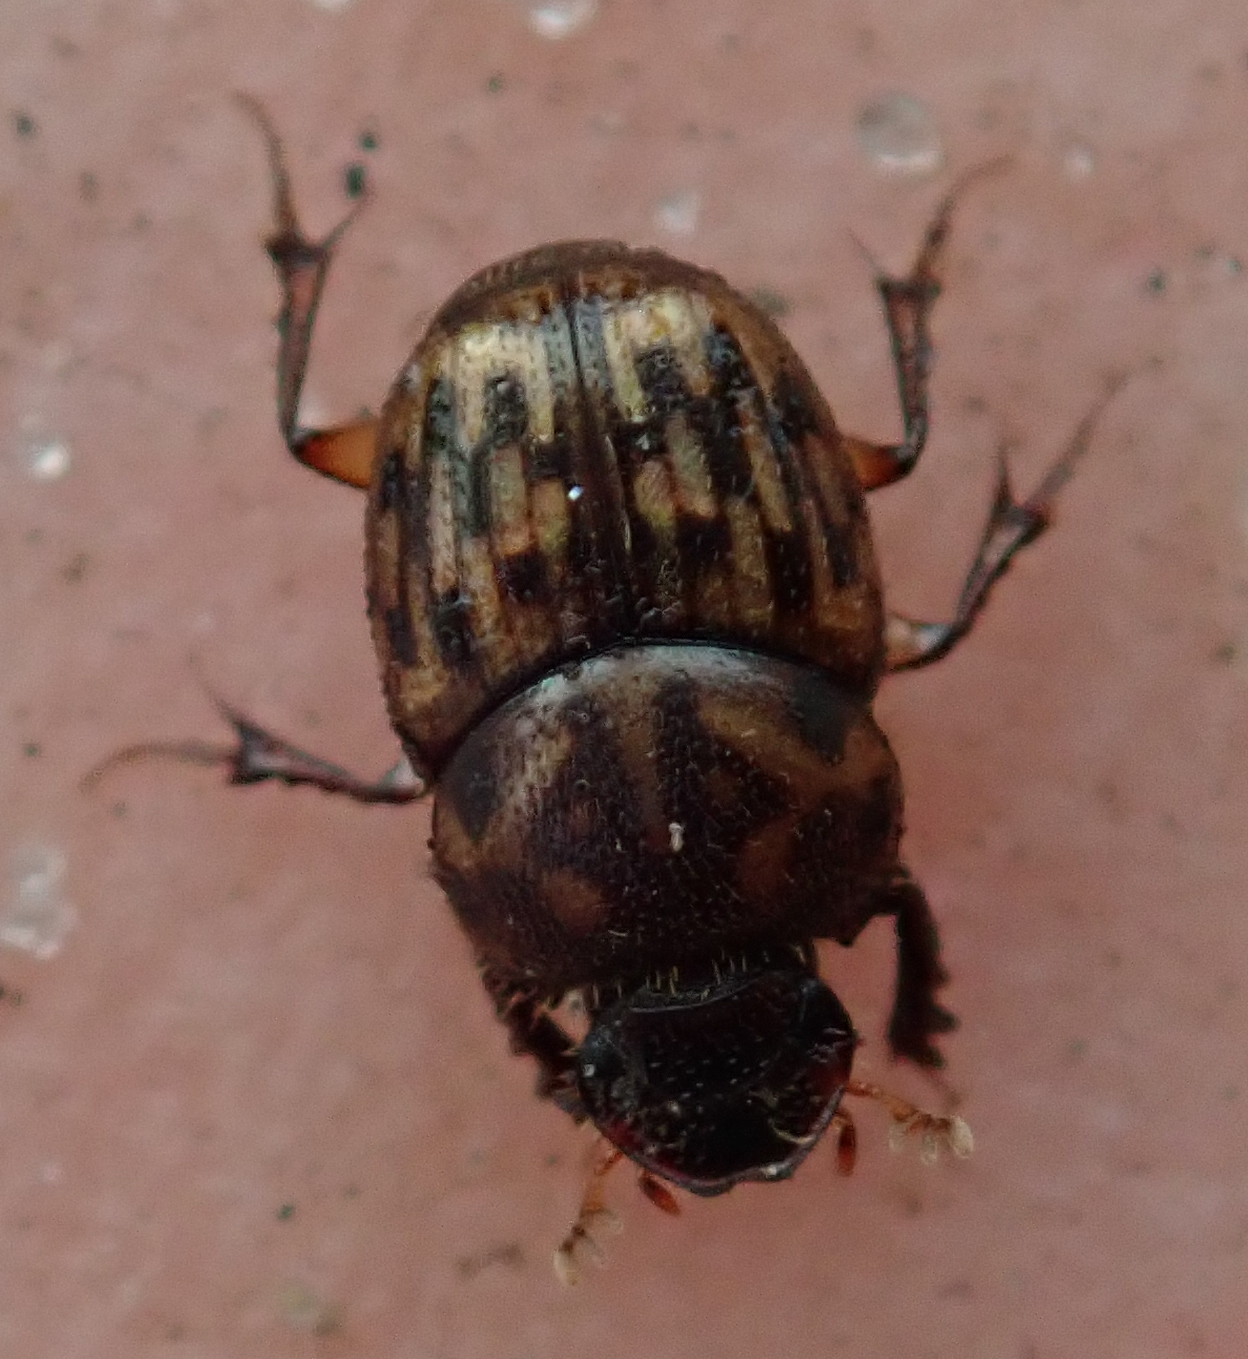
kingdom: Animalia
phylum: Arthropoda
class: Insecta
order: Coleoptera
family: Scarabaeidae
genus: Onthophagus
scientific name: Onthophagus variegatus
